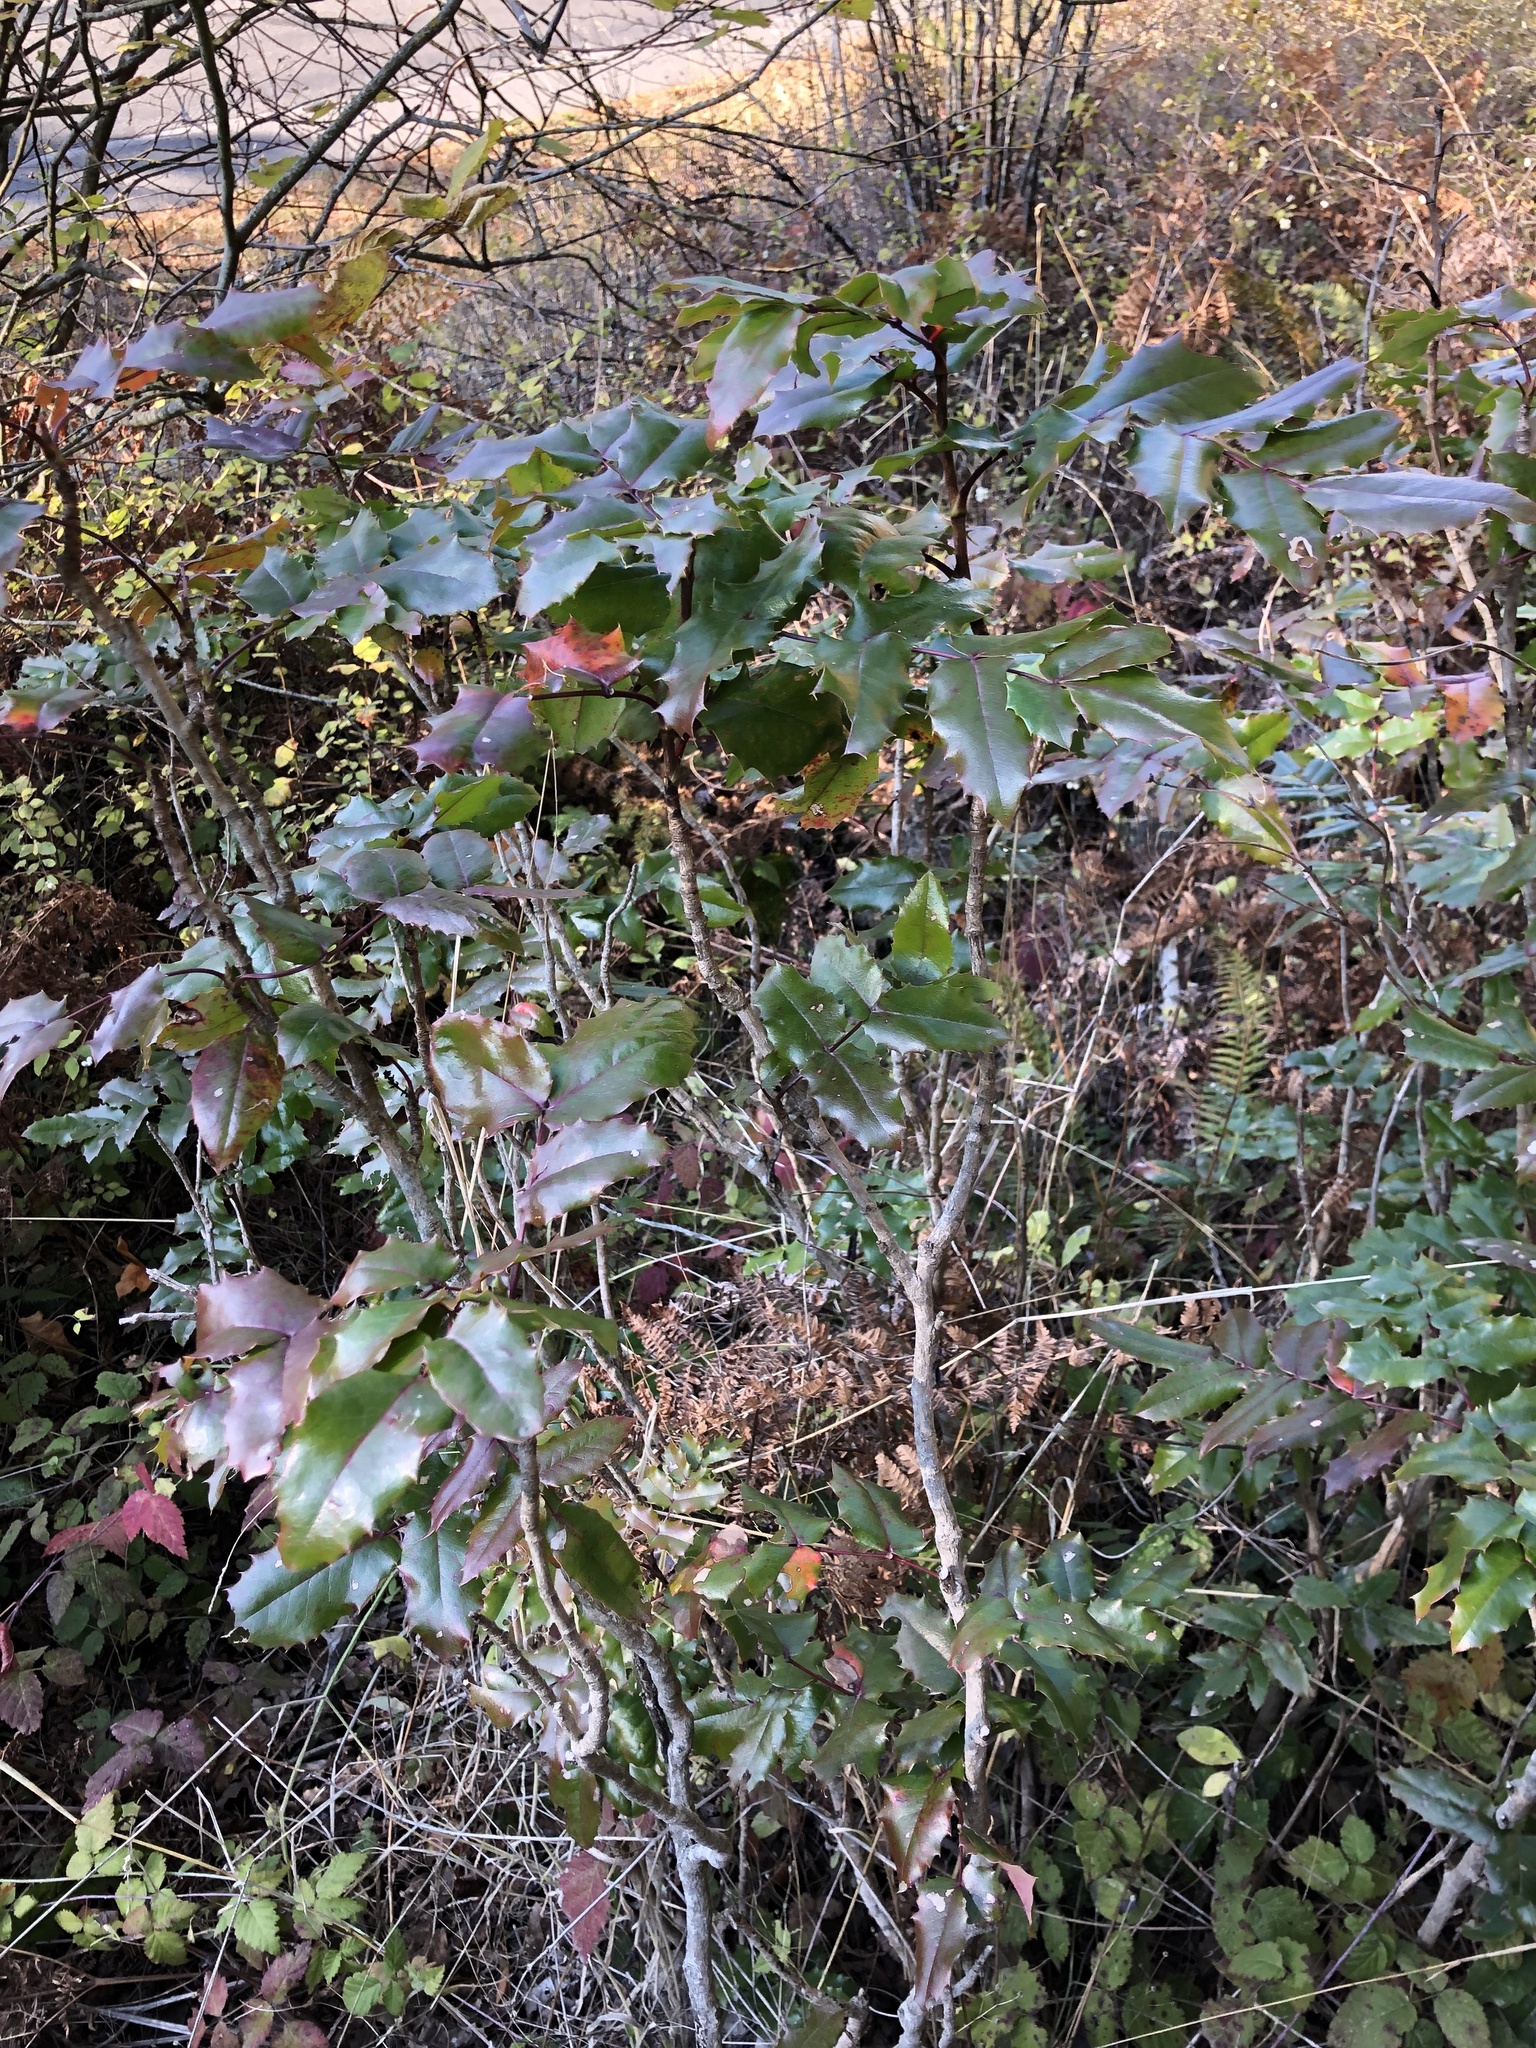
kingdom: Plantae
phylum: Tracheophyta
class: Magnoliopsida
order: Ranunculales
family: Berberidaceae
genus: Mahonia
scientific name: Mahonia aquifolium
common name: Oregon-grape
